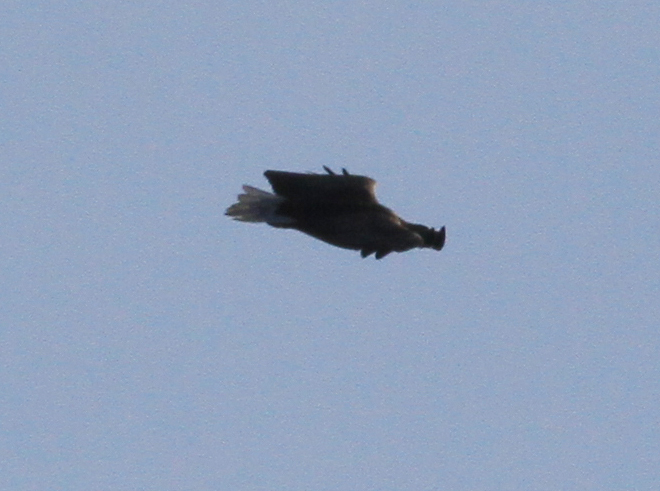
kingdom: Animalia
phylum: Chordata
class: Aves
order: Accipitriformes
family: Accipitridae
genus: Haliaeetus
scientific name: Haliaeetus albicilla
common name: White-tailed eagle
